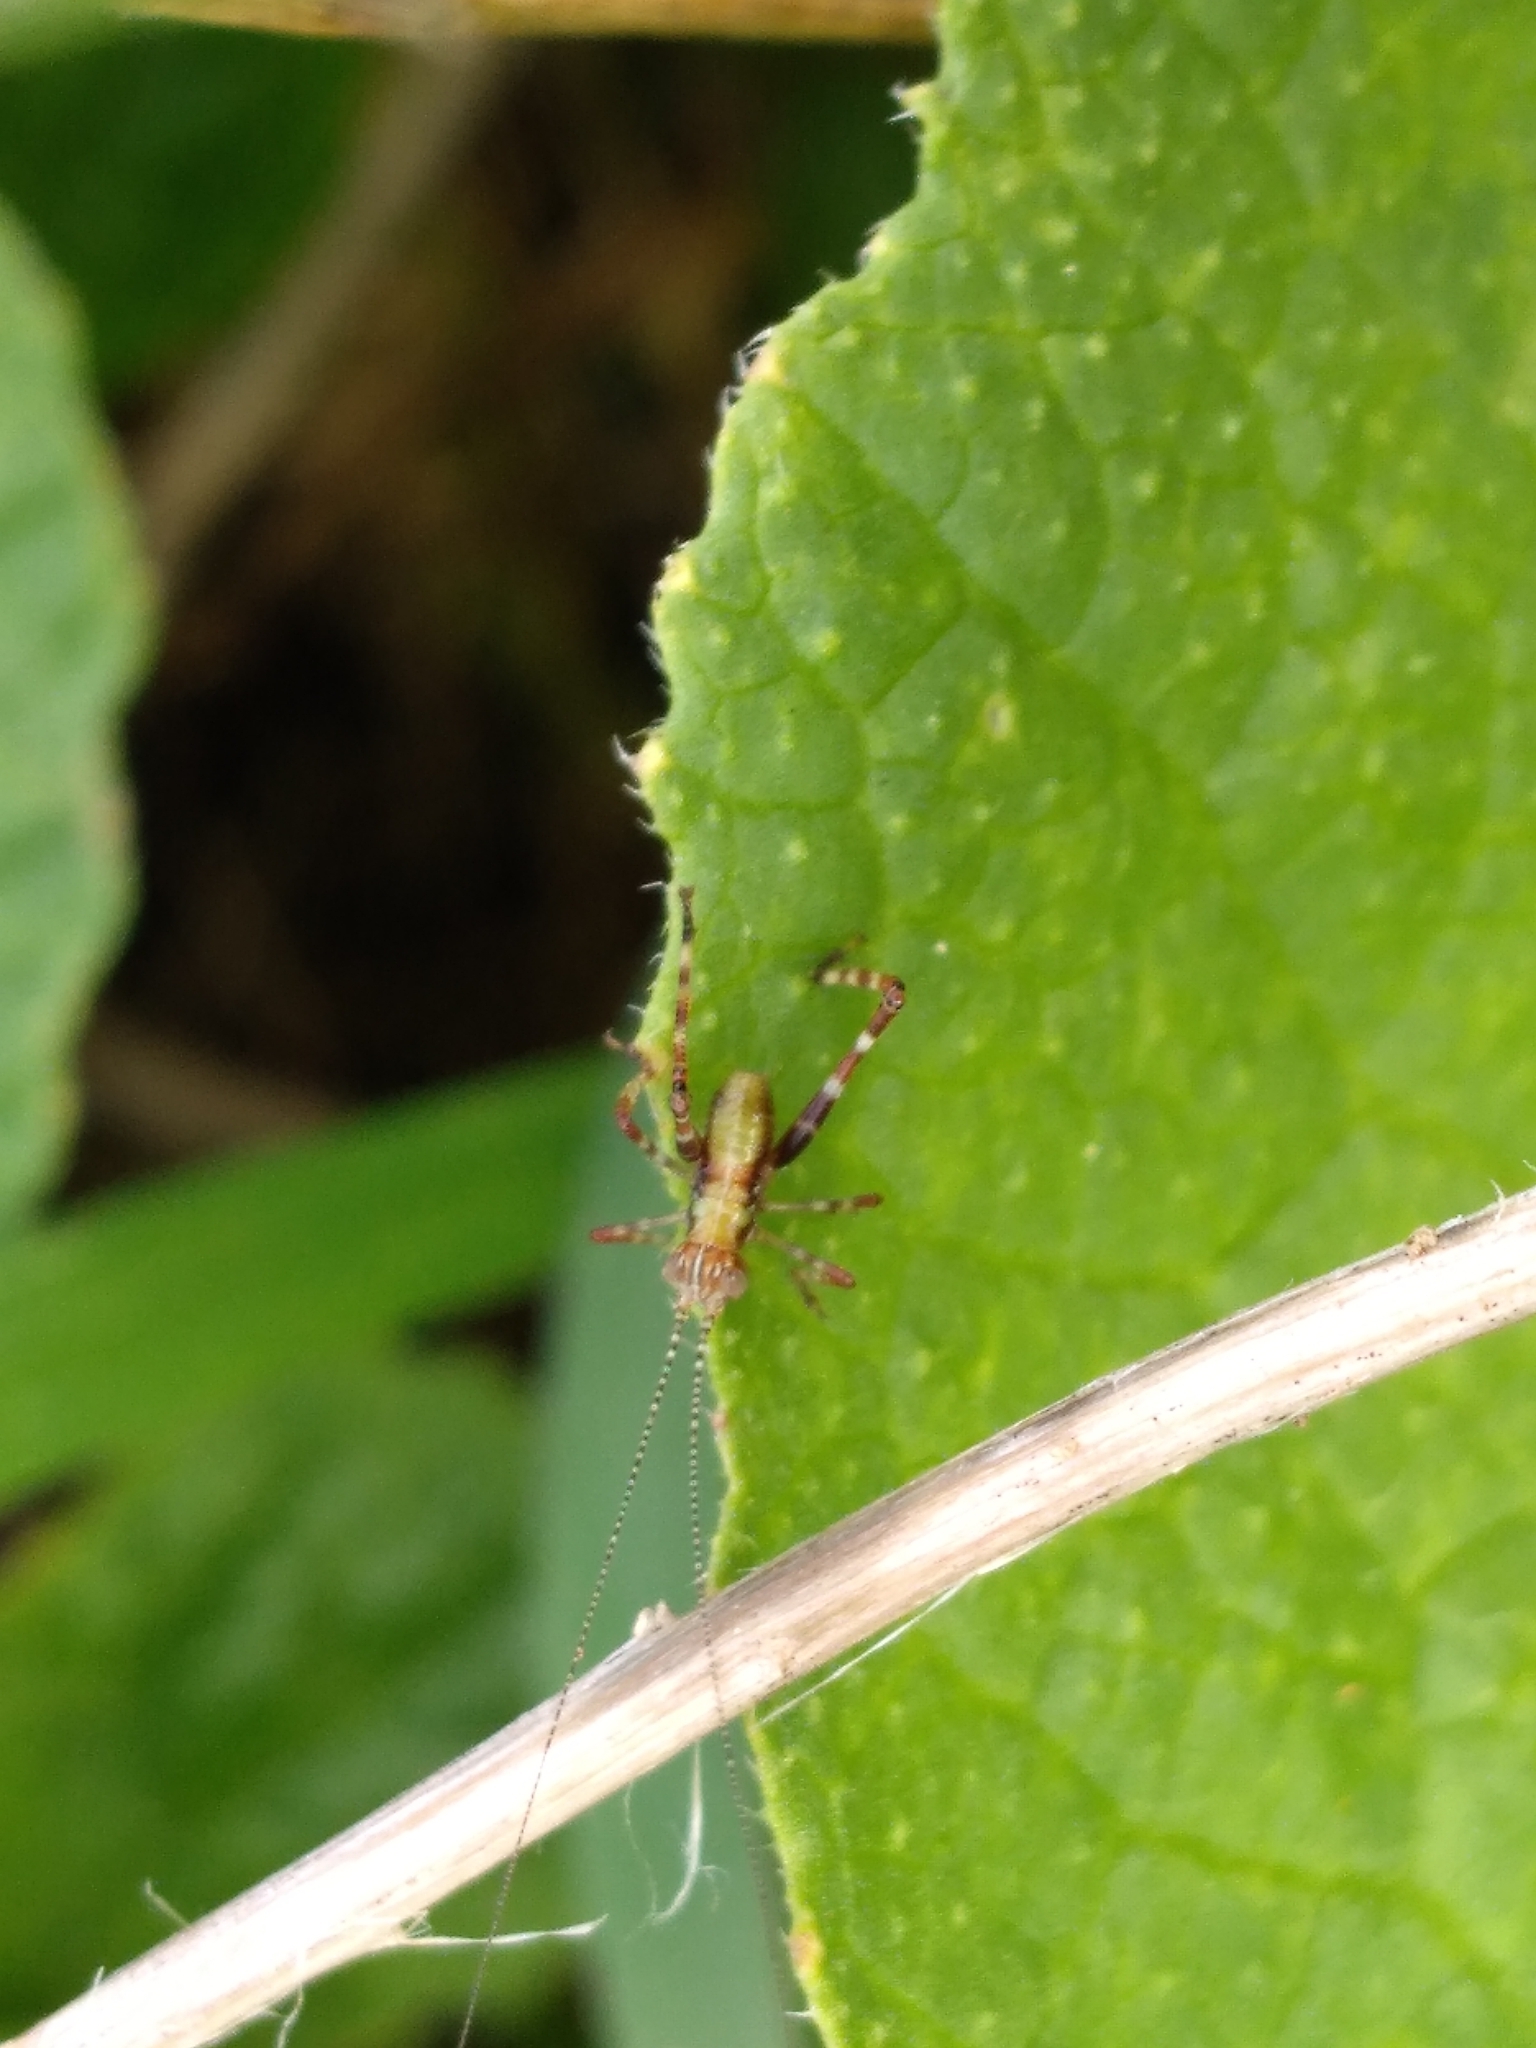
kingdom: Animalia
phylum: Arthropoda
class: Insecta
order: Orthoptera
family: Tettigoniidae
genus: Caedicia
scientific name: Caedicia simplex
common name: Common garden katydid
